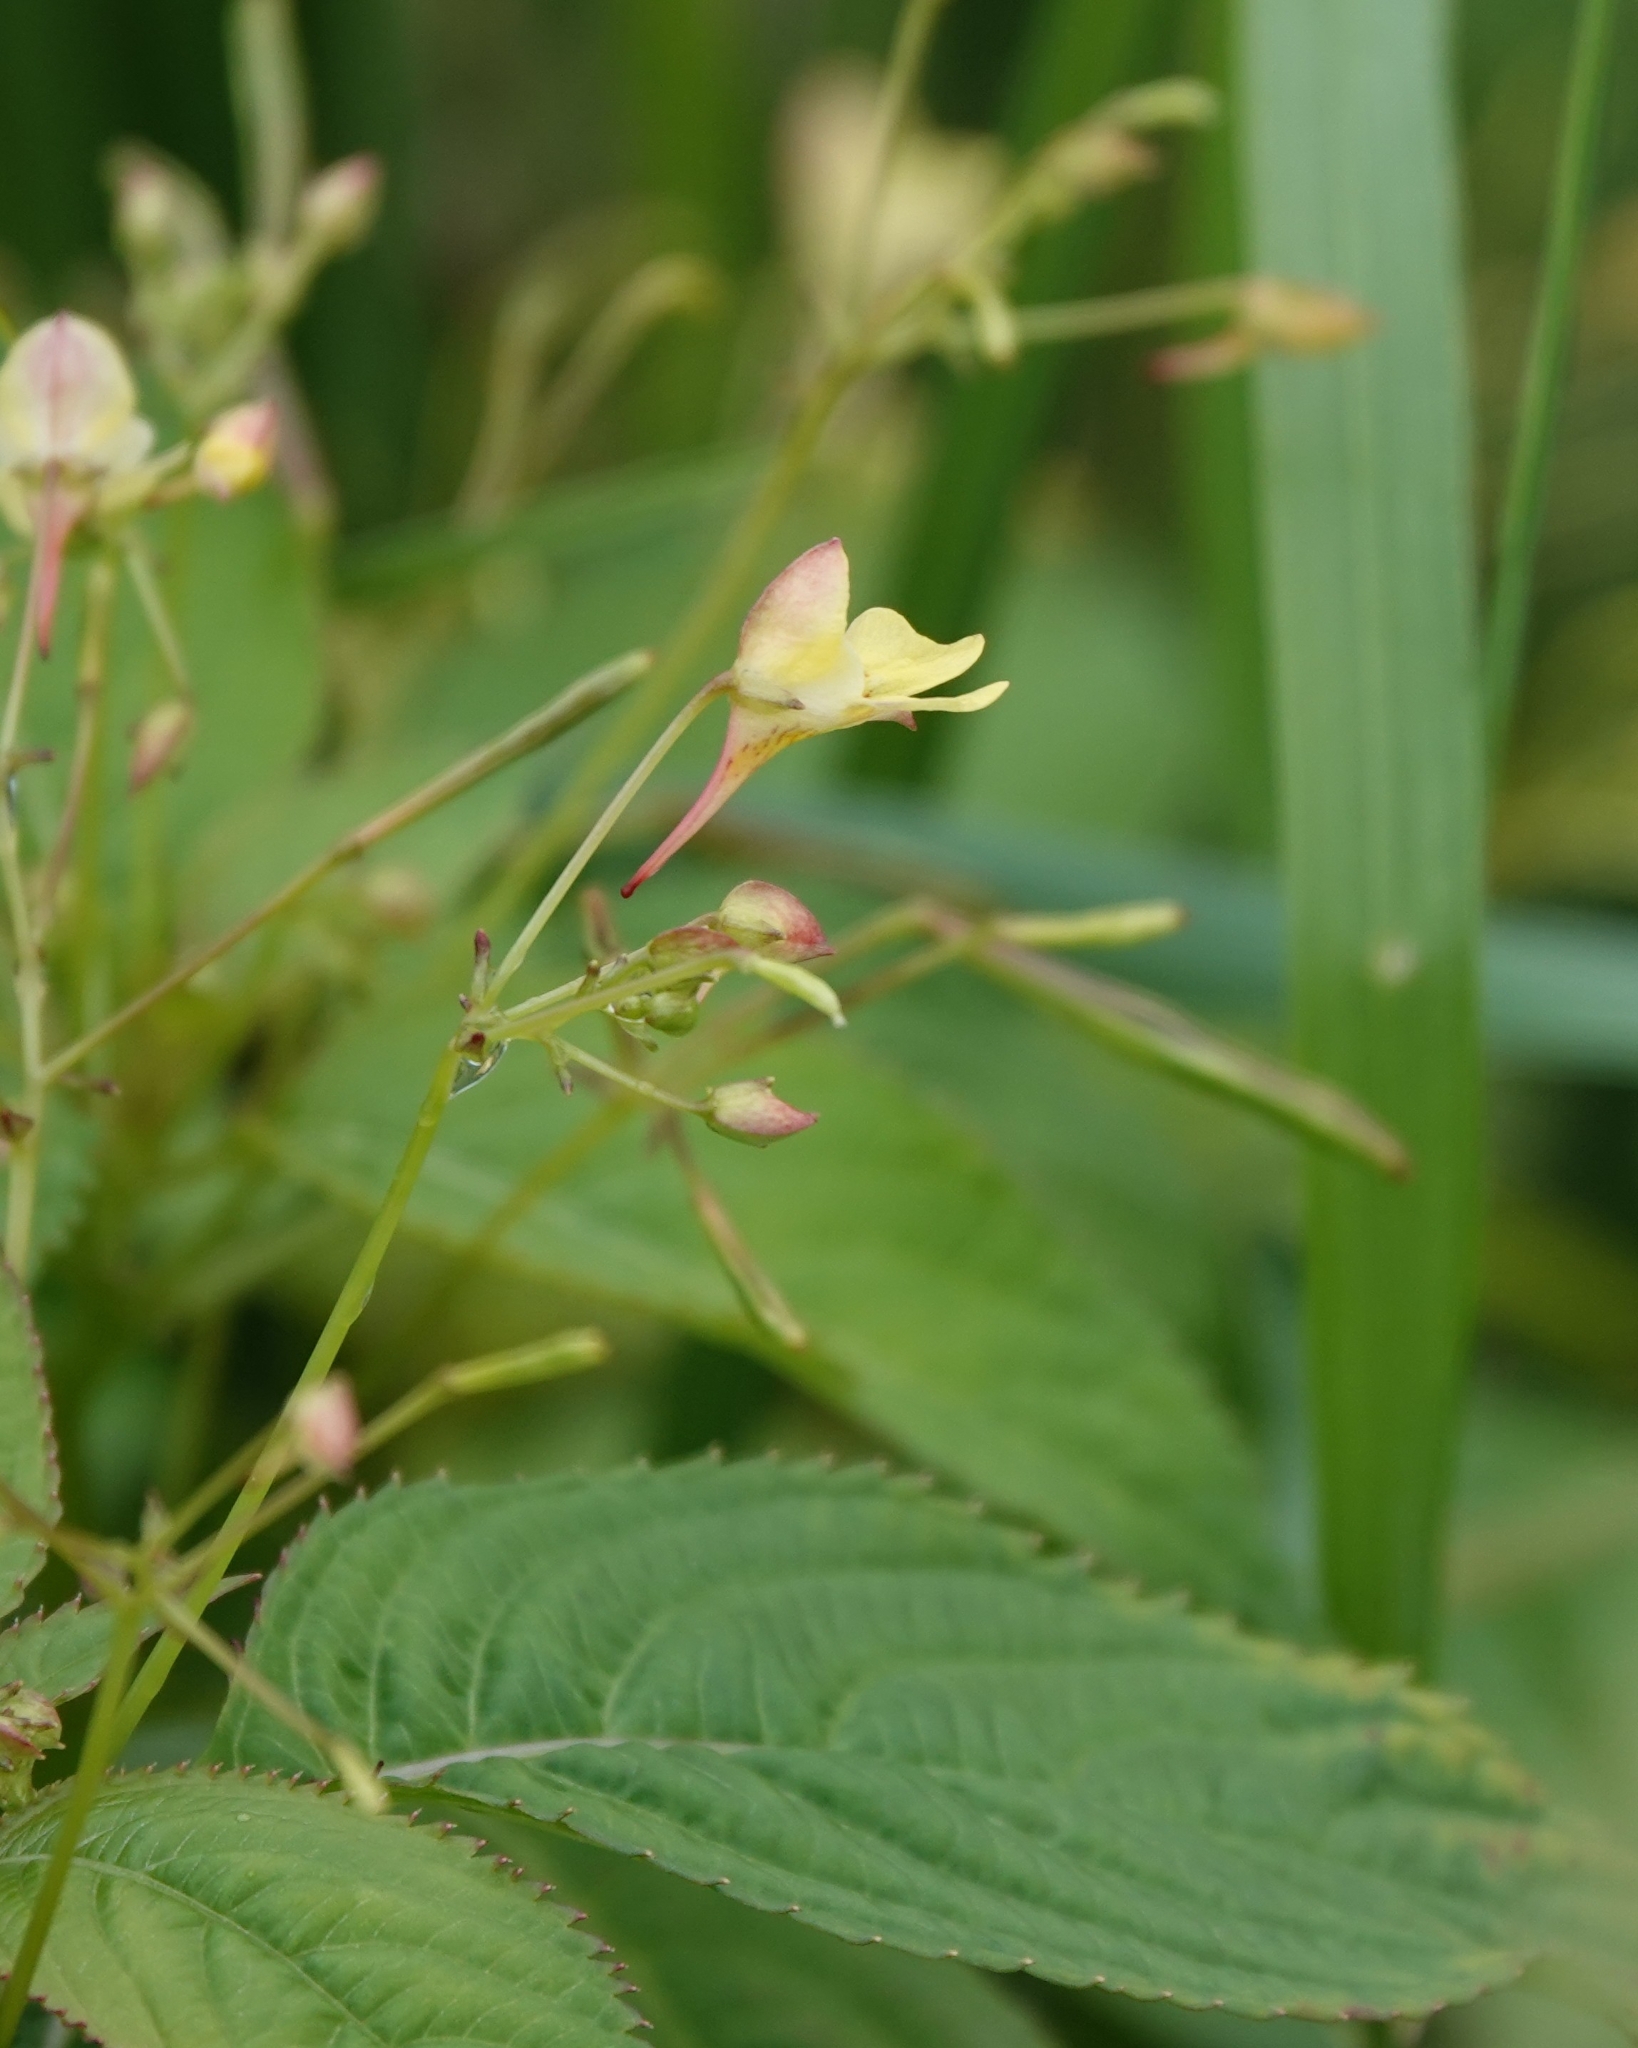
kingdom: Plantae
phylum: Tracheophyta
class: Magnoliopsida
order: Ericales
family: Balsaminaceae
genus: Impatiens
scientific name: Impatiens parviflora
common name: Small balsam
